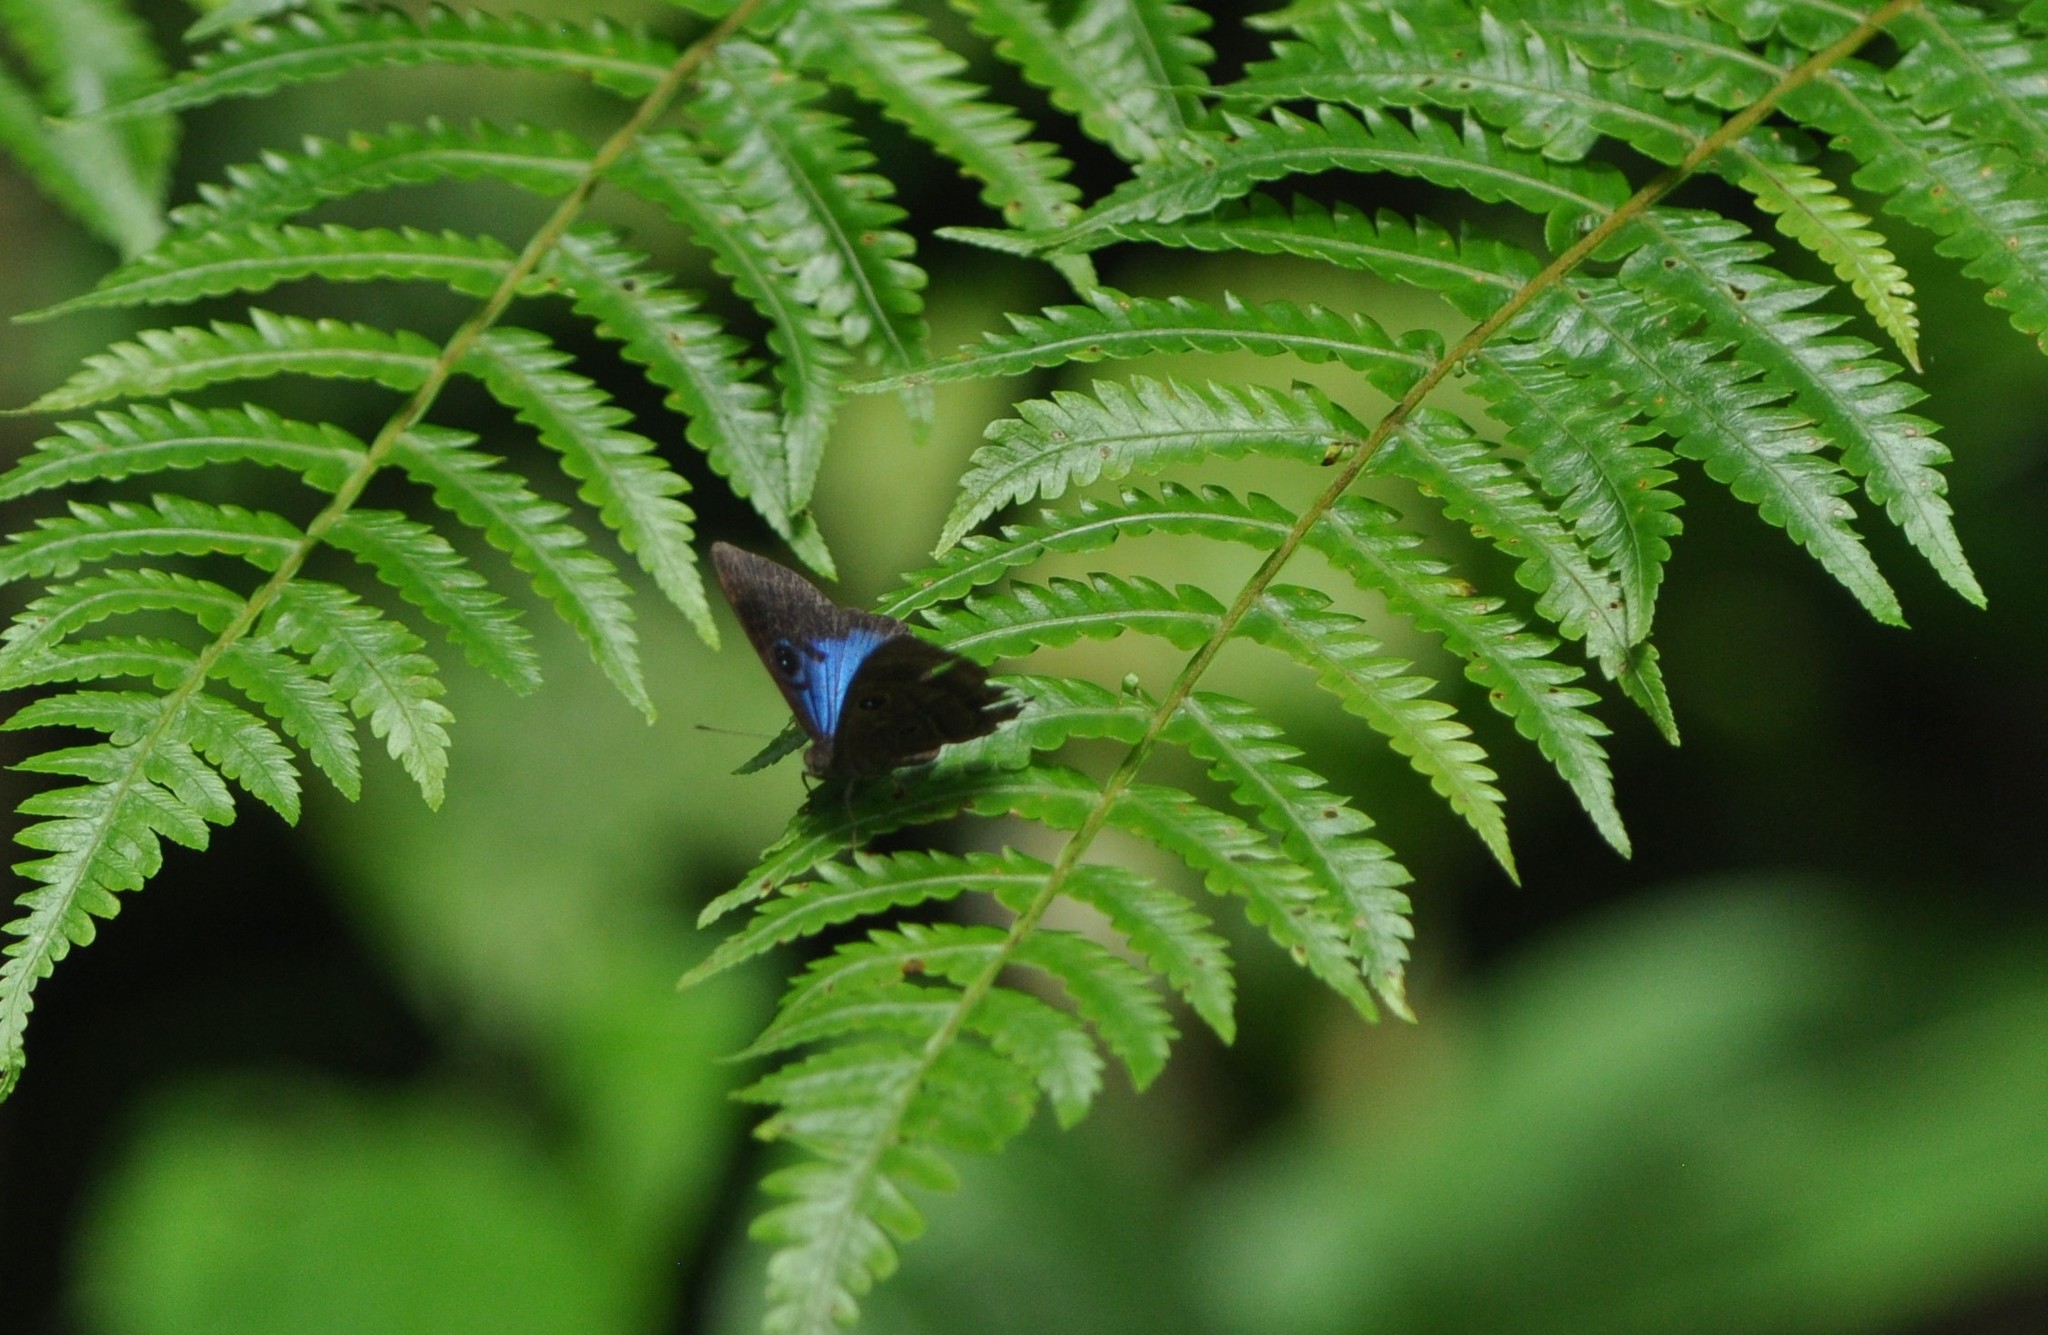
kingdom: Animalia
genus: Mesosemia
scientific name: Mesosemia asa
